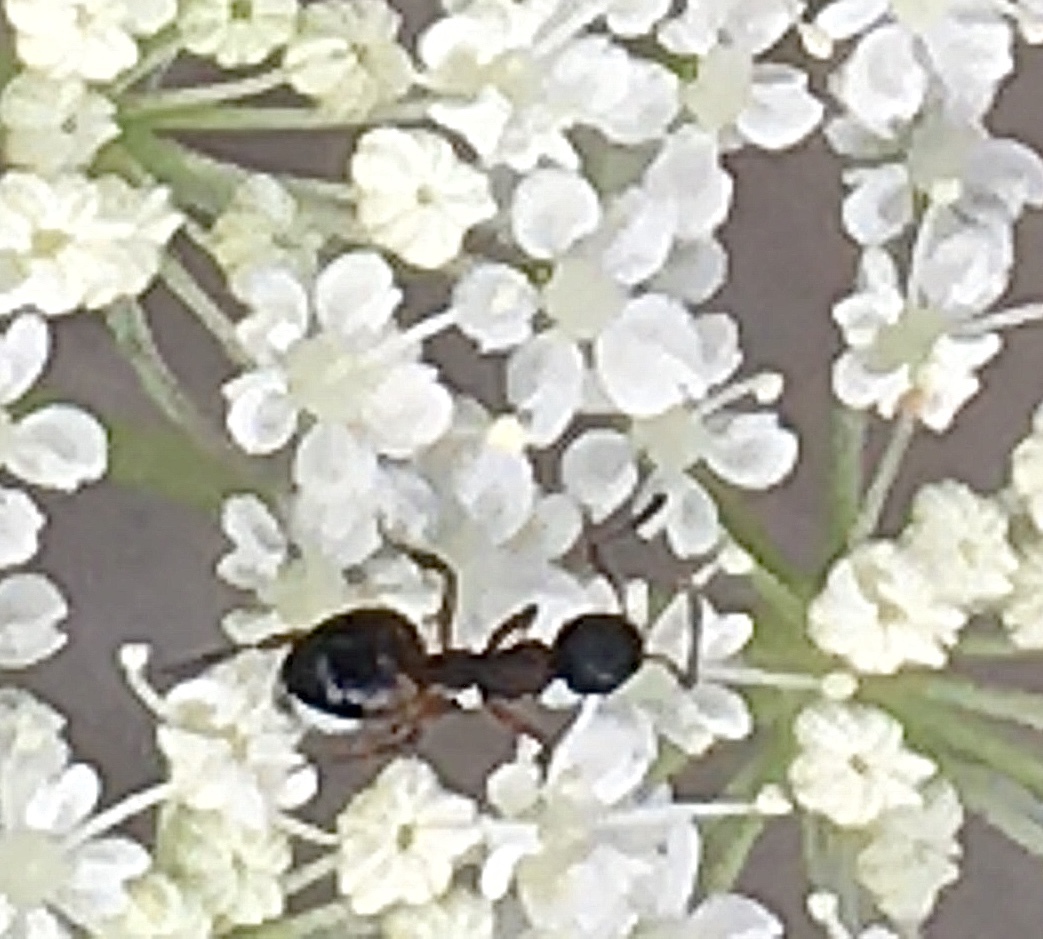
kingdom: Animalia
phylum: Arthropoda
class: Insecta
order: Hymenoptera
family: Formicidae
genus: Dolichoderus
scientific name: Dolichoderus plagiatus
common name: Mottled dolichoderus
